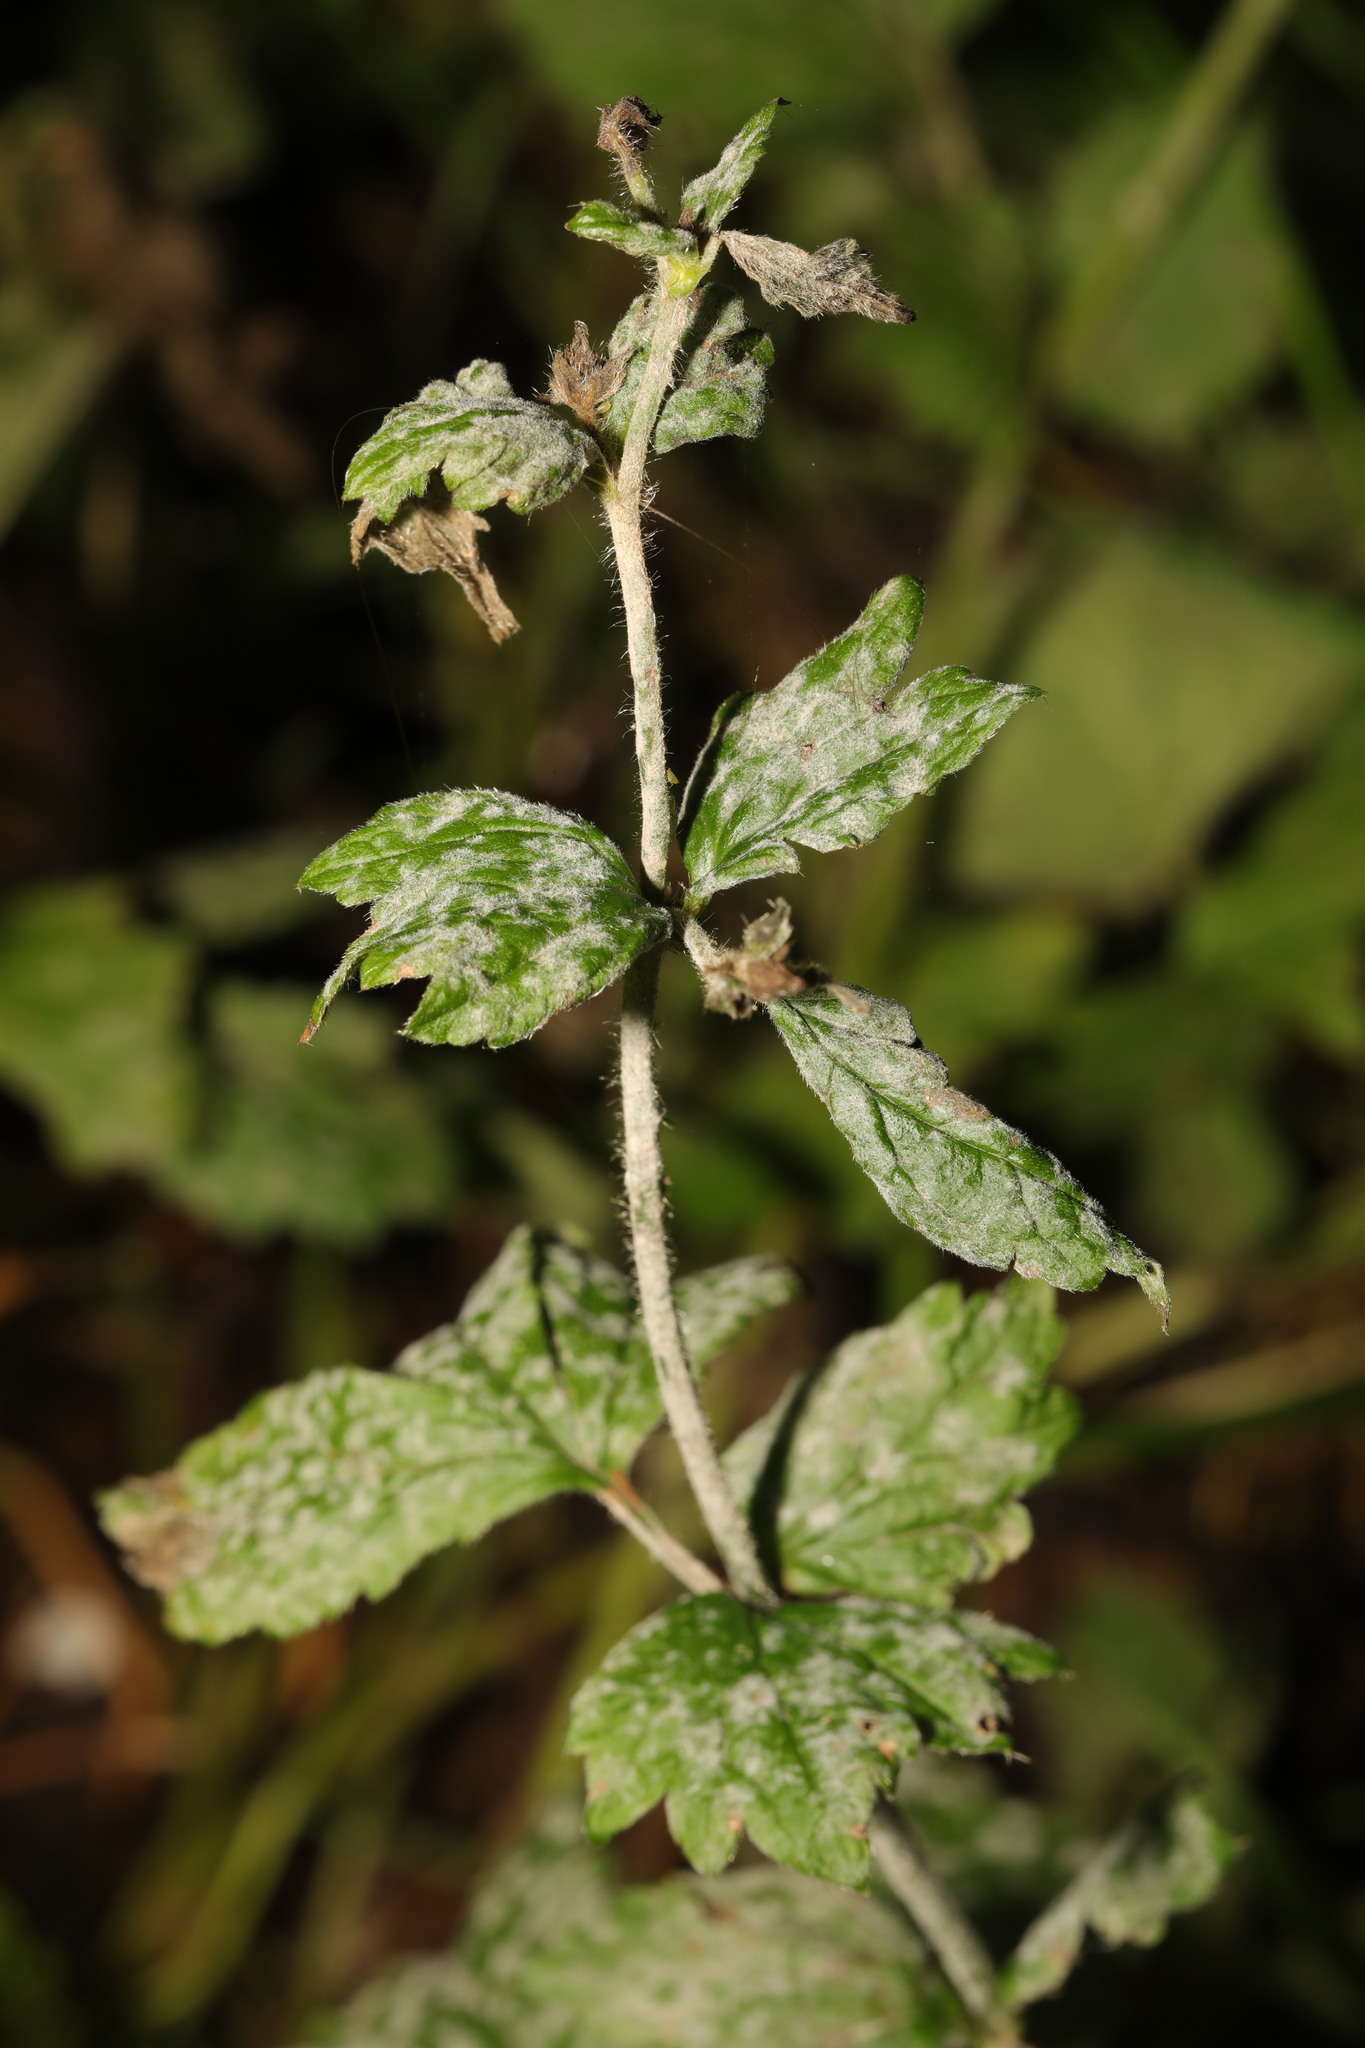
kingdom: Fungi
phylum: Ascomycota
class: Leotiomycetes
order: Helotiales
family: Erysiphaceae
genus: Podosphaera
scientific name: Podosphaera aphanis
